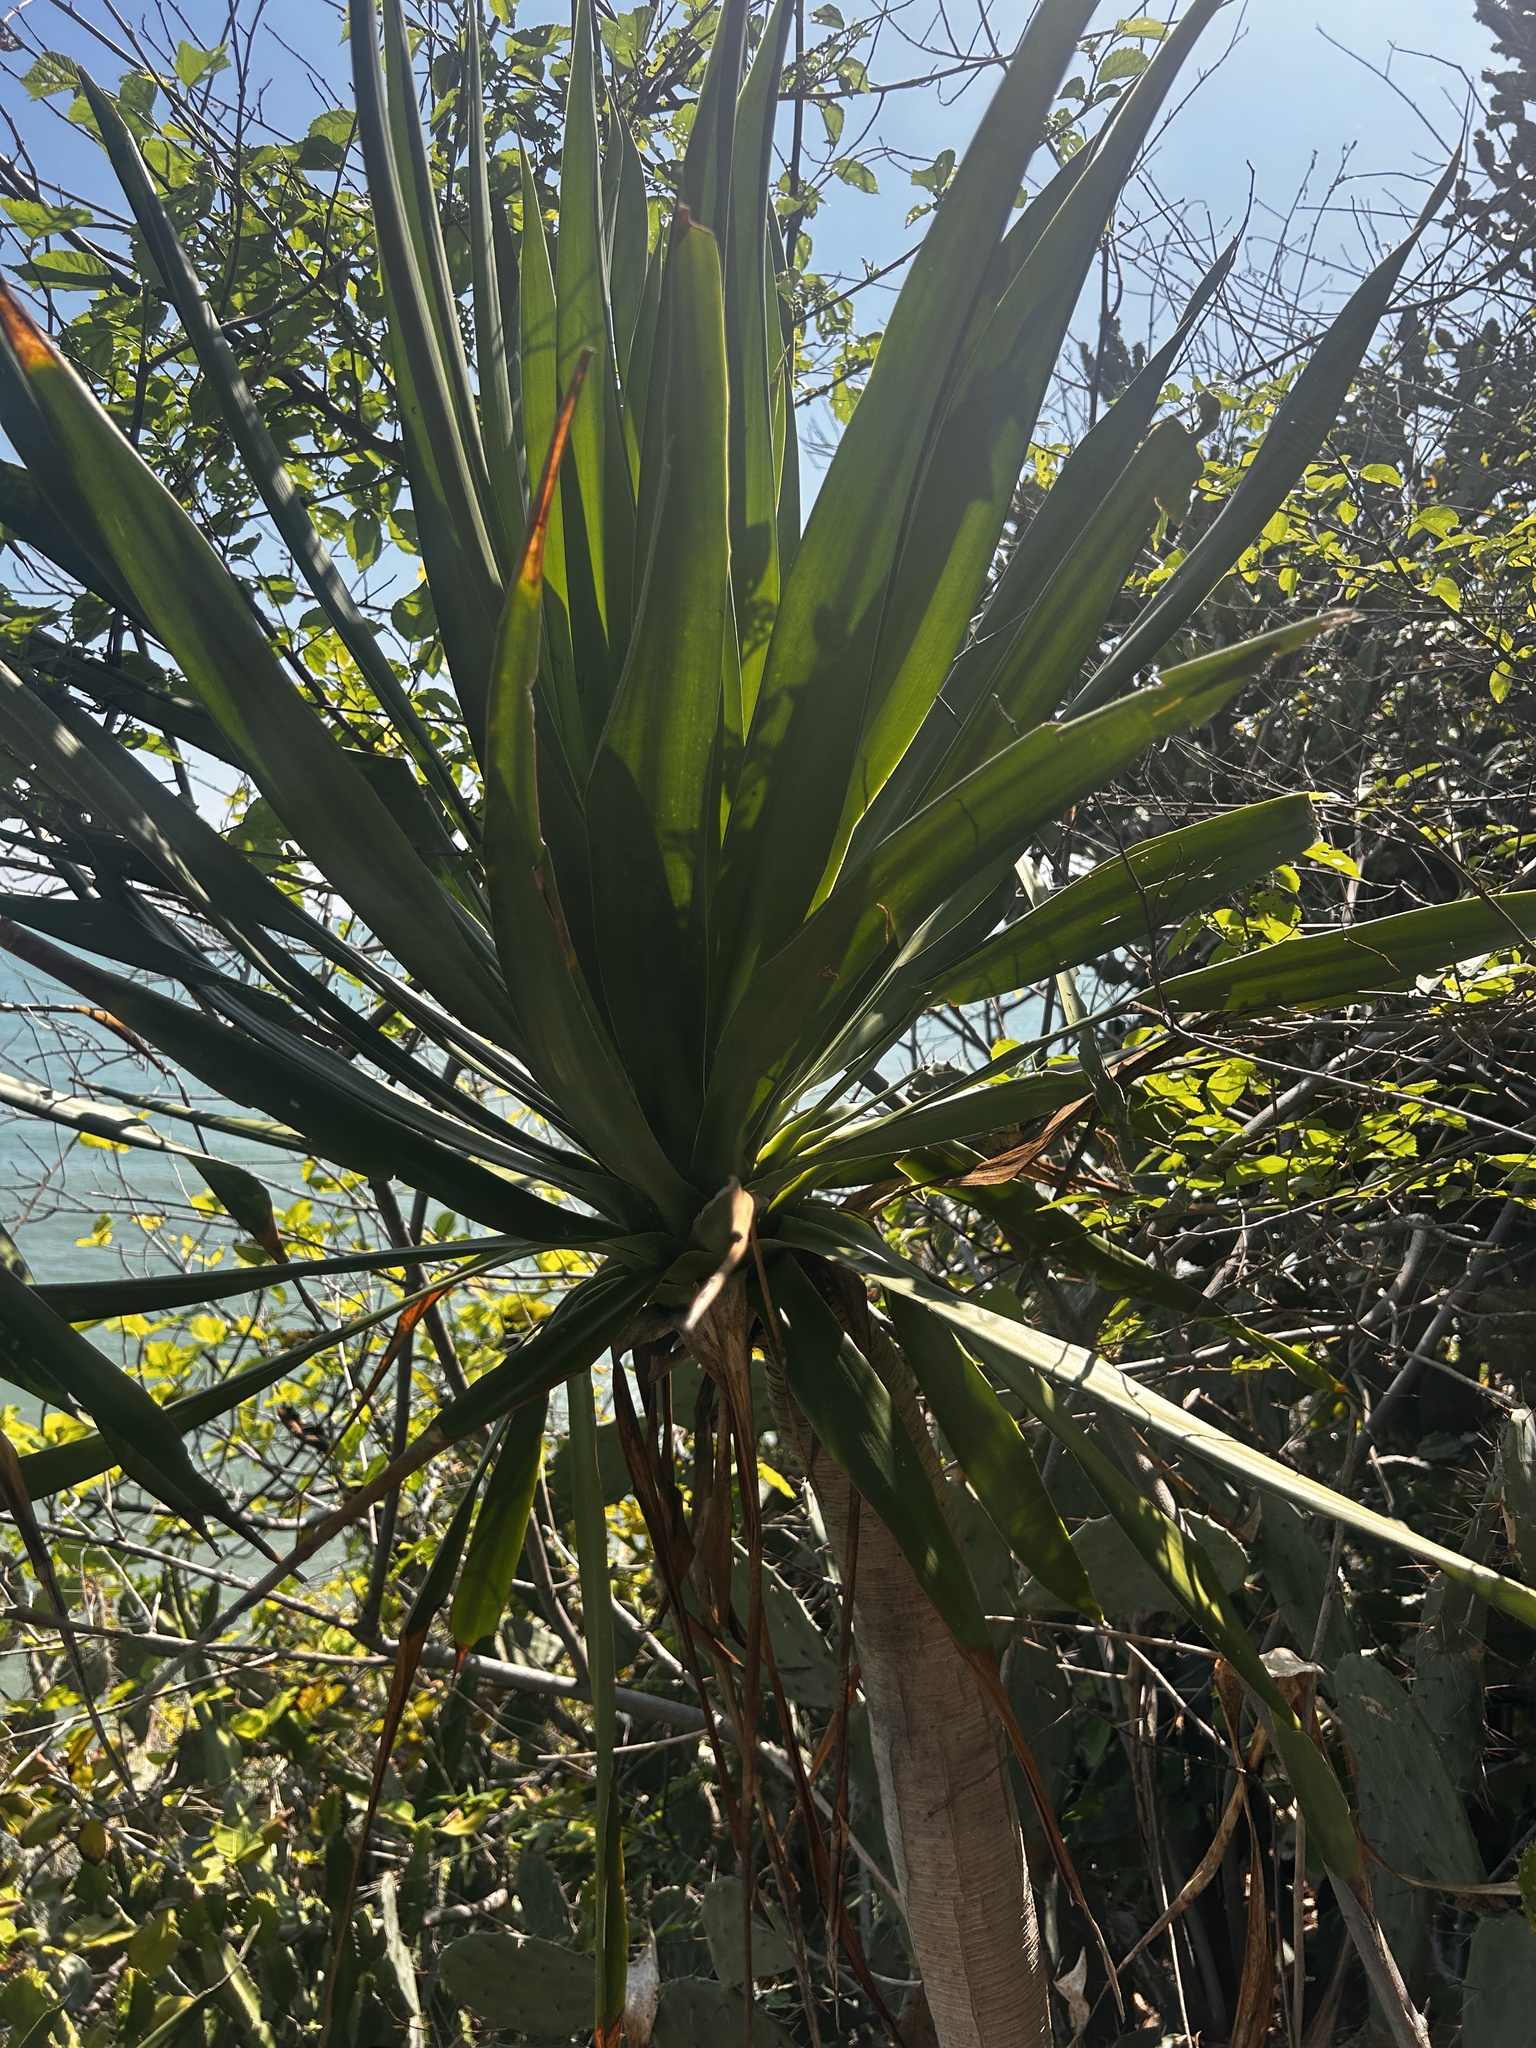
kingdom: Plantae
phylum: Tracheophyta
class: Liliopsida
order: Asparagales
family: Asparagaceae
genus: Dracaena
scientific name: Dracaena cochinchinensis
